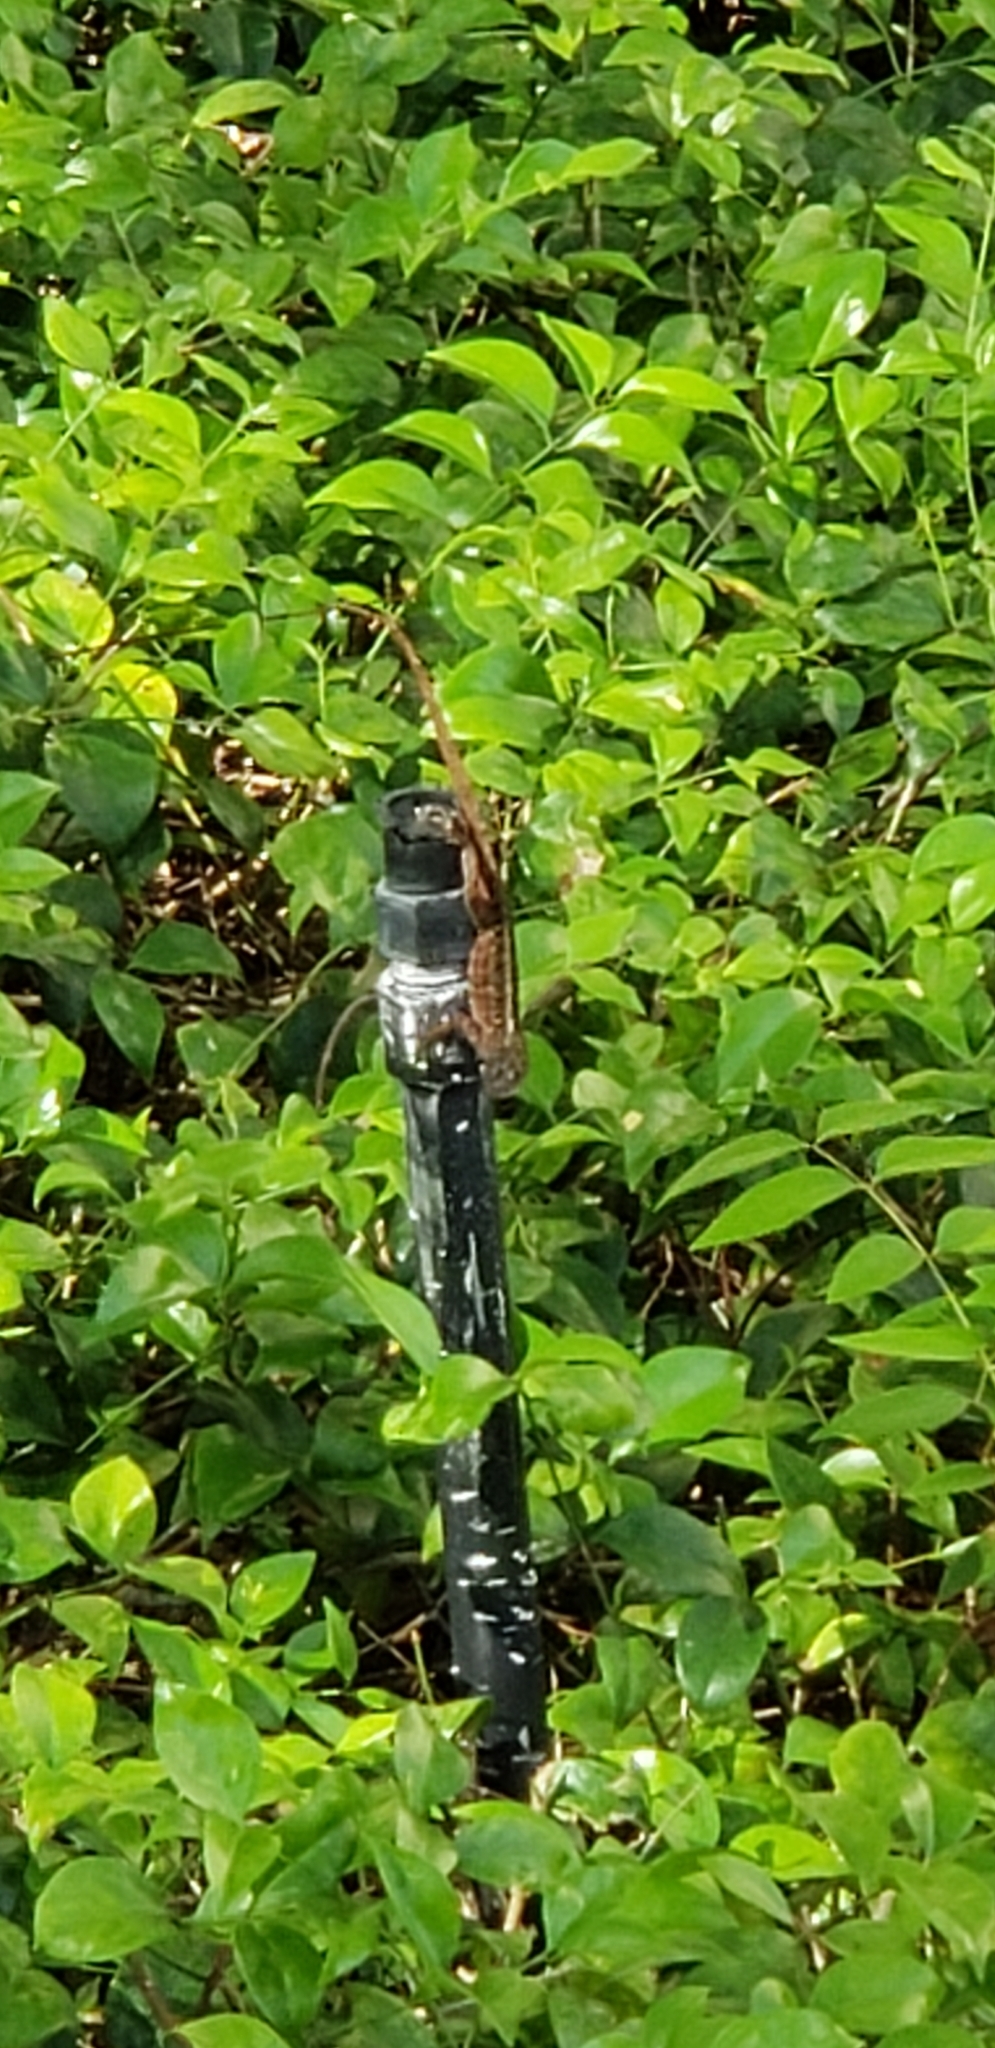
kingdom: Animalia
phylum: Chordata
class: Squamata
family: Dactyloidae
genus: Anolis
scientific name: Anolis sagrei
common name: Brown anole
